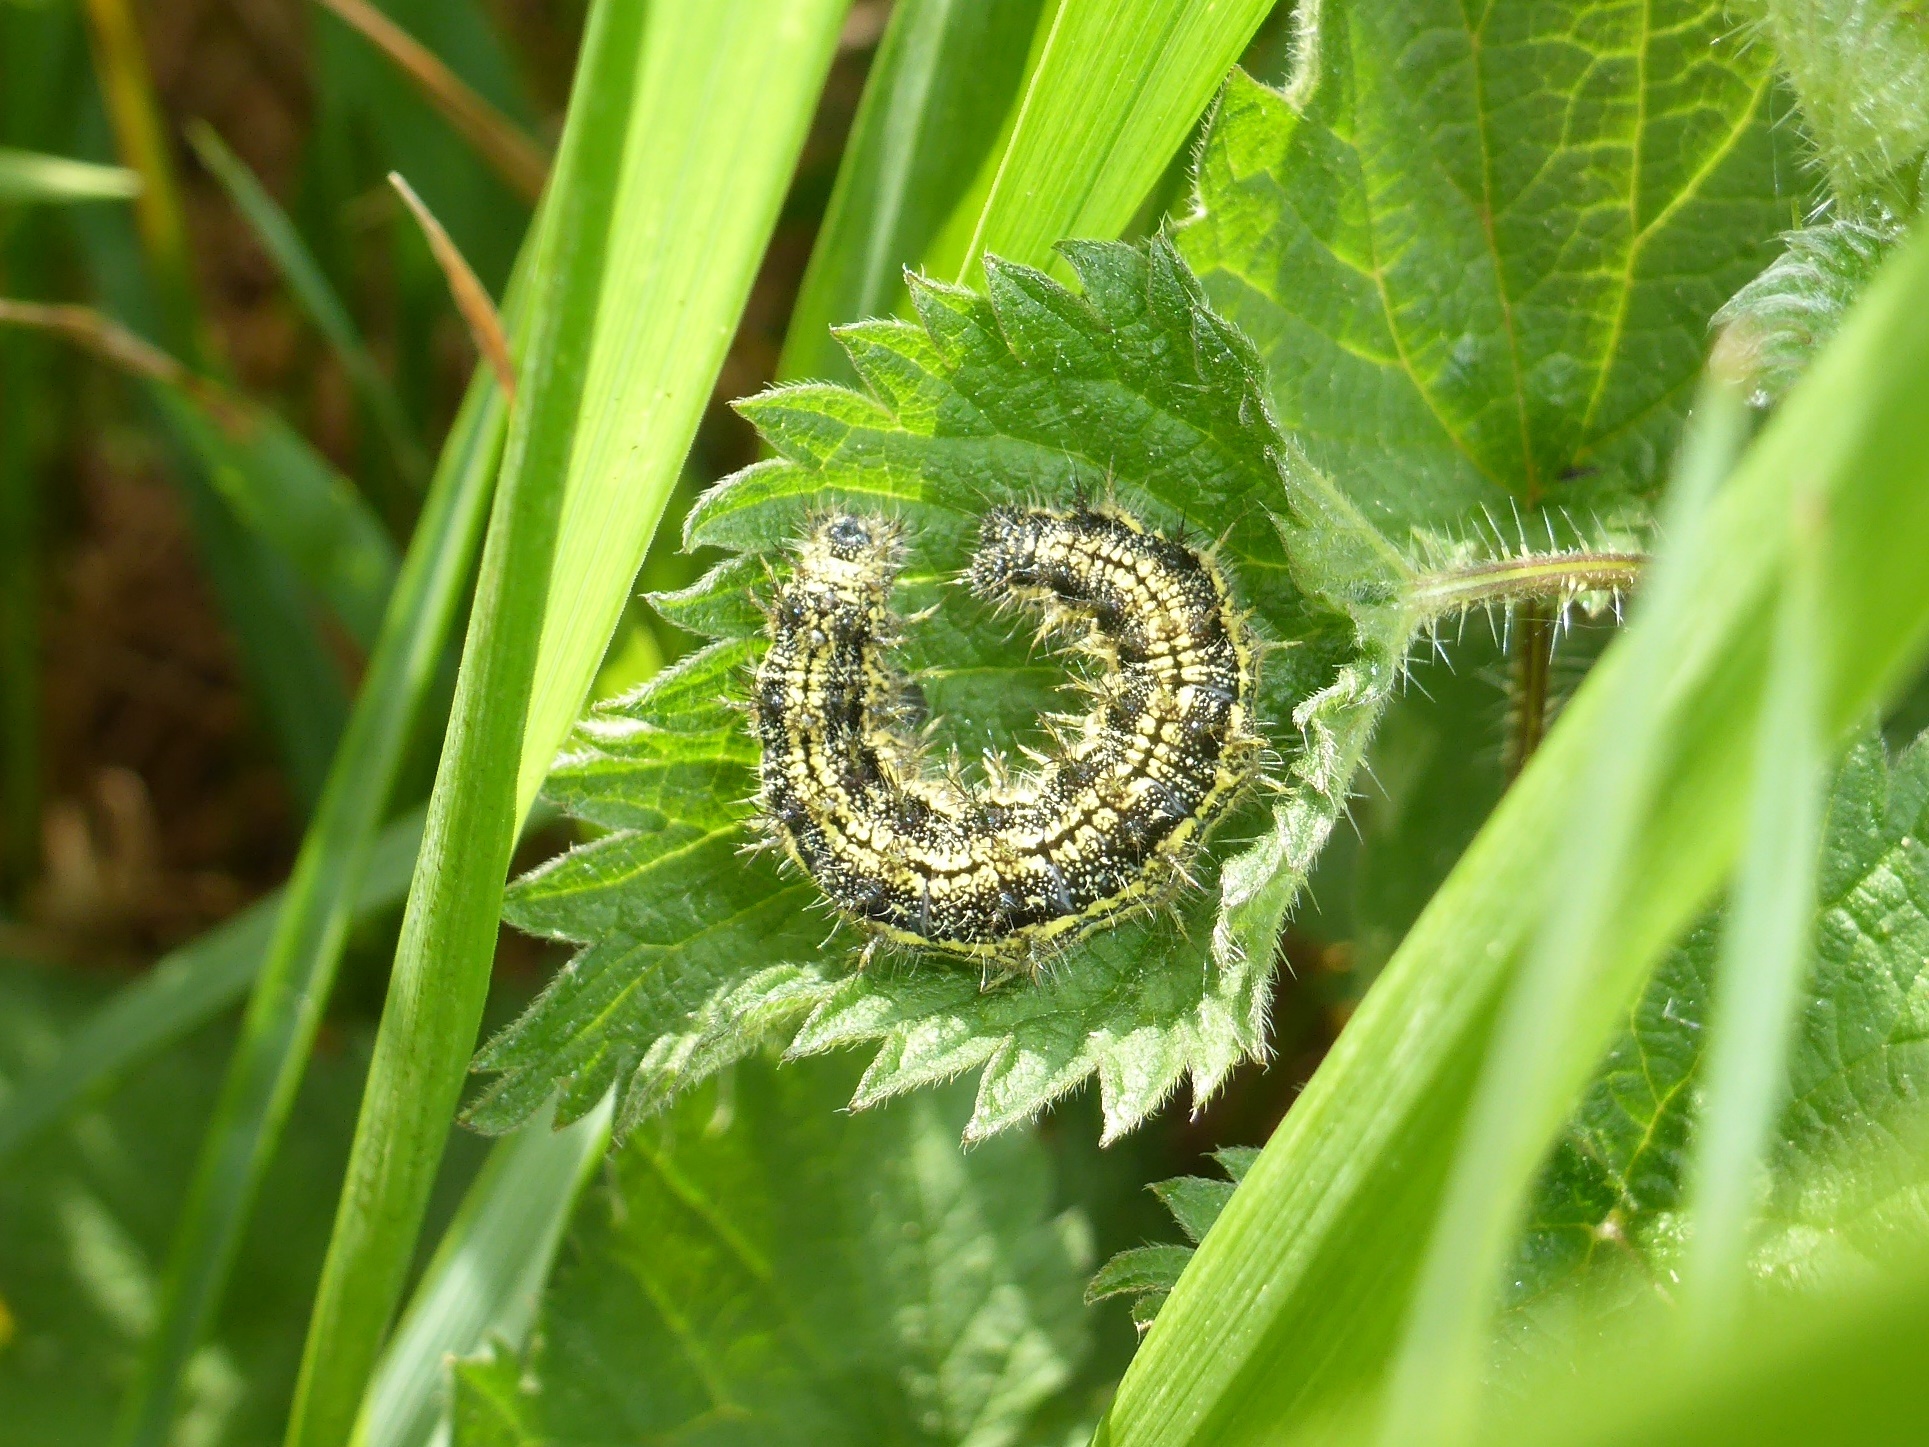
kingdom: Plantae
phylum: Tracheophyta
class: Magnoliopsida
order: Rosales
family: Urticaceae
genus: Urtica
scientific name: Urtica dioica
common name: Common nettle
